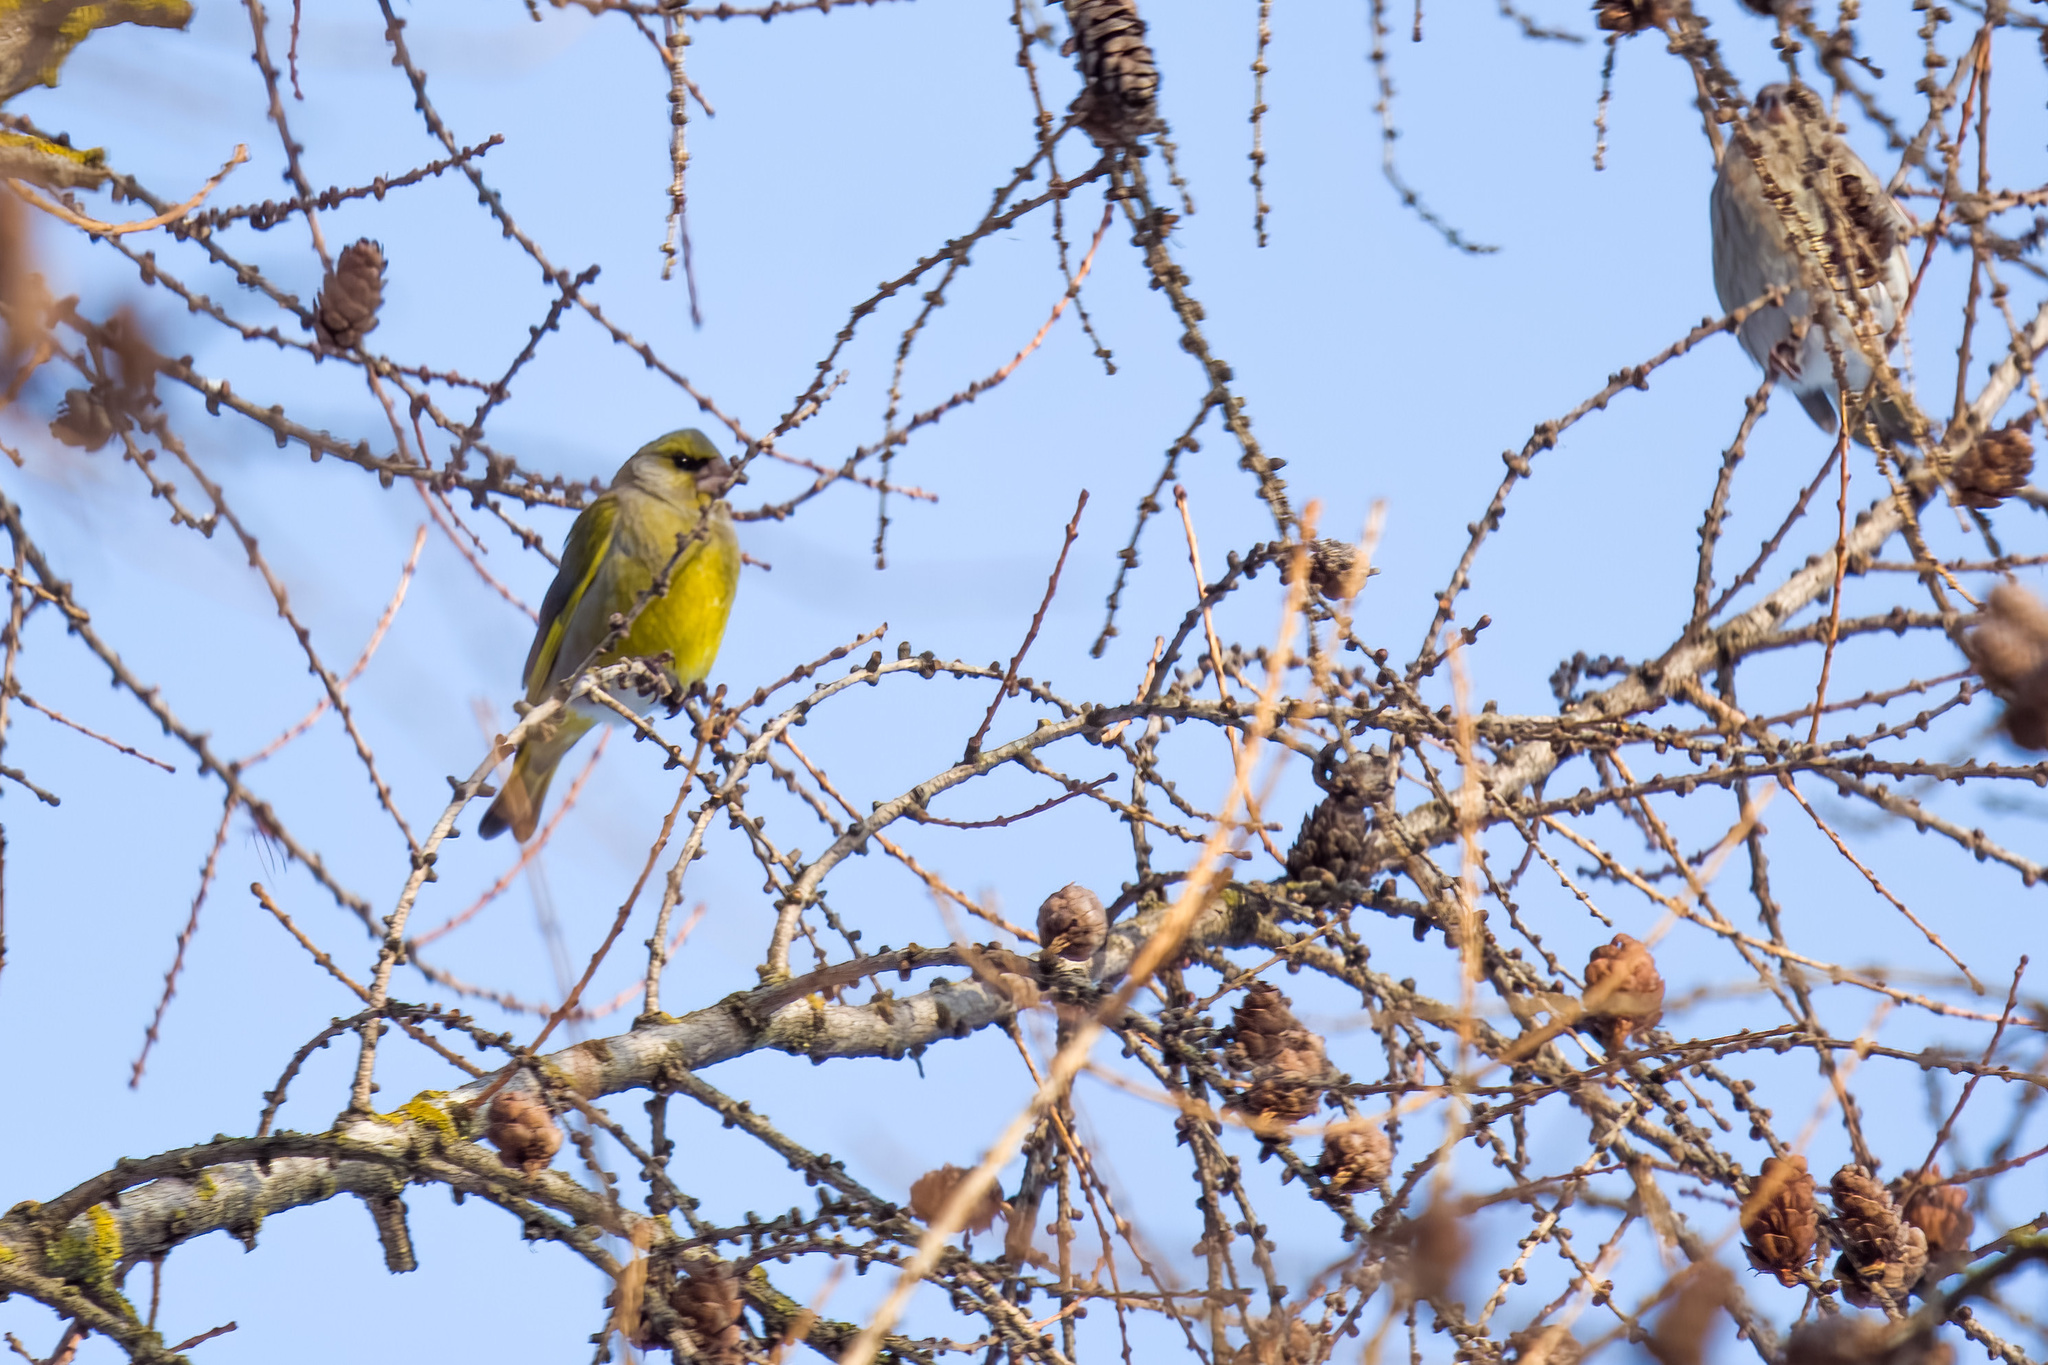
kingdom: Plantae
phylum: Tracheophyta
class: Liliopsida
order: Poales
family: Poaceae
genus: Chloris
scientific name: Chloris chloris
